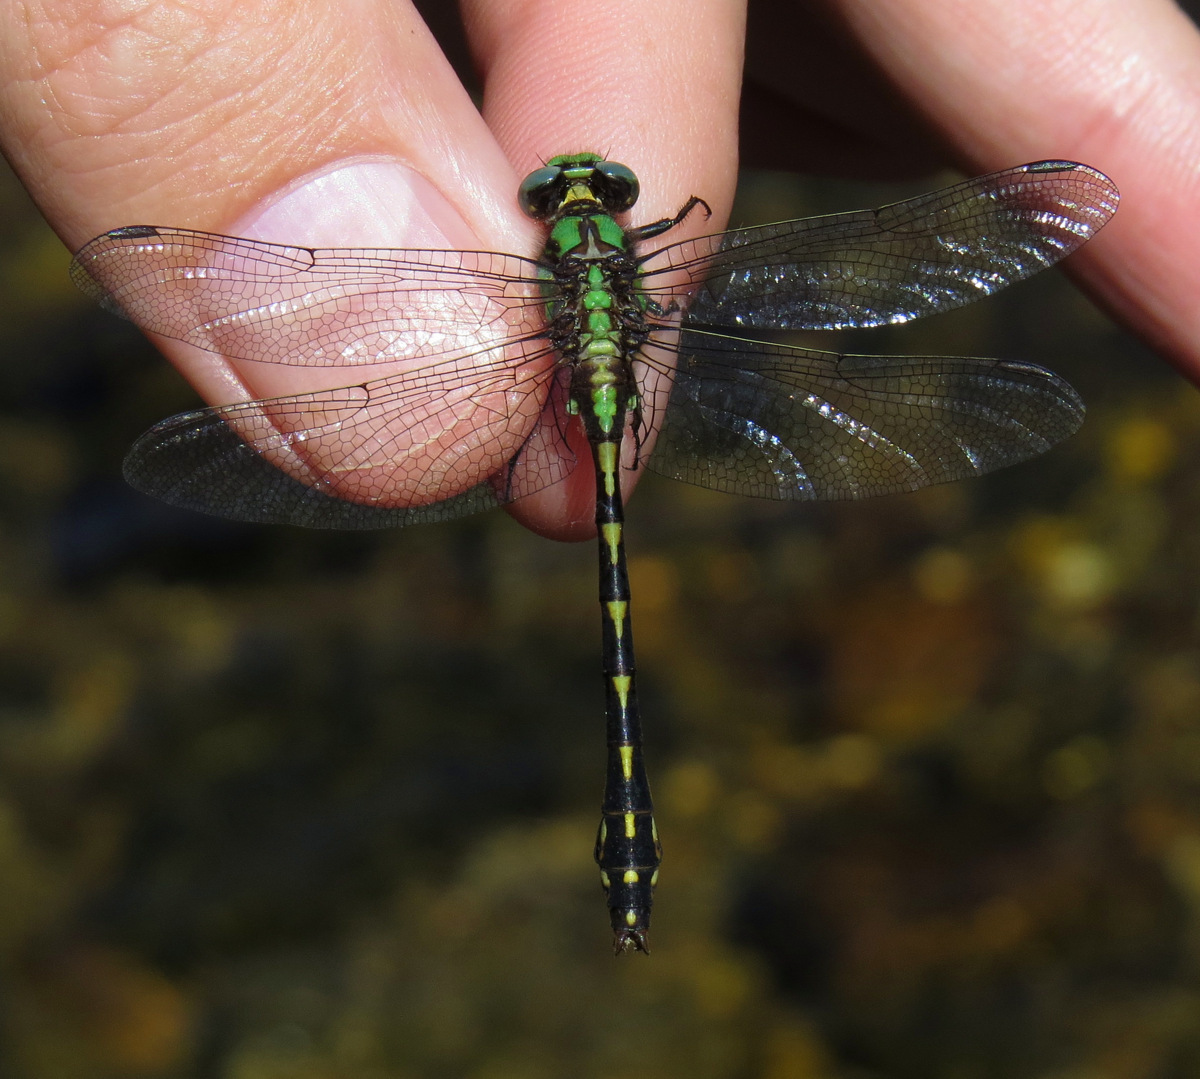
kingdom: Animalia
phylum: Arthropoda
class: Insecta
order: Odonata
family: Gomphidae
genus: Ophiogomphus
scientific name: Ophiogomphus carolus
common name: Riffle snaketail
